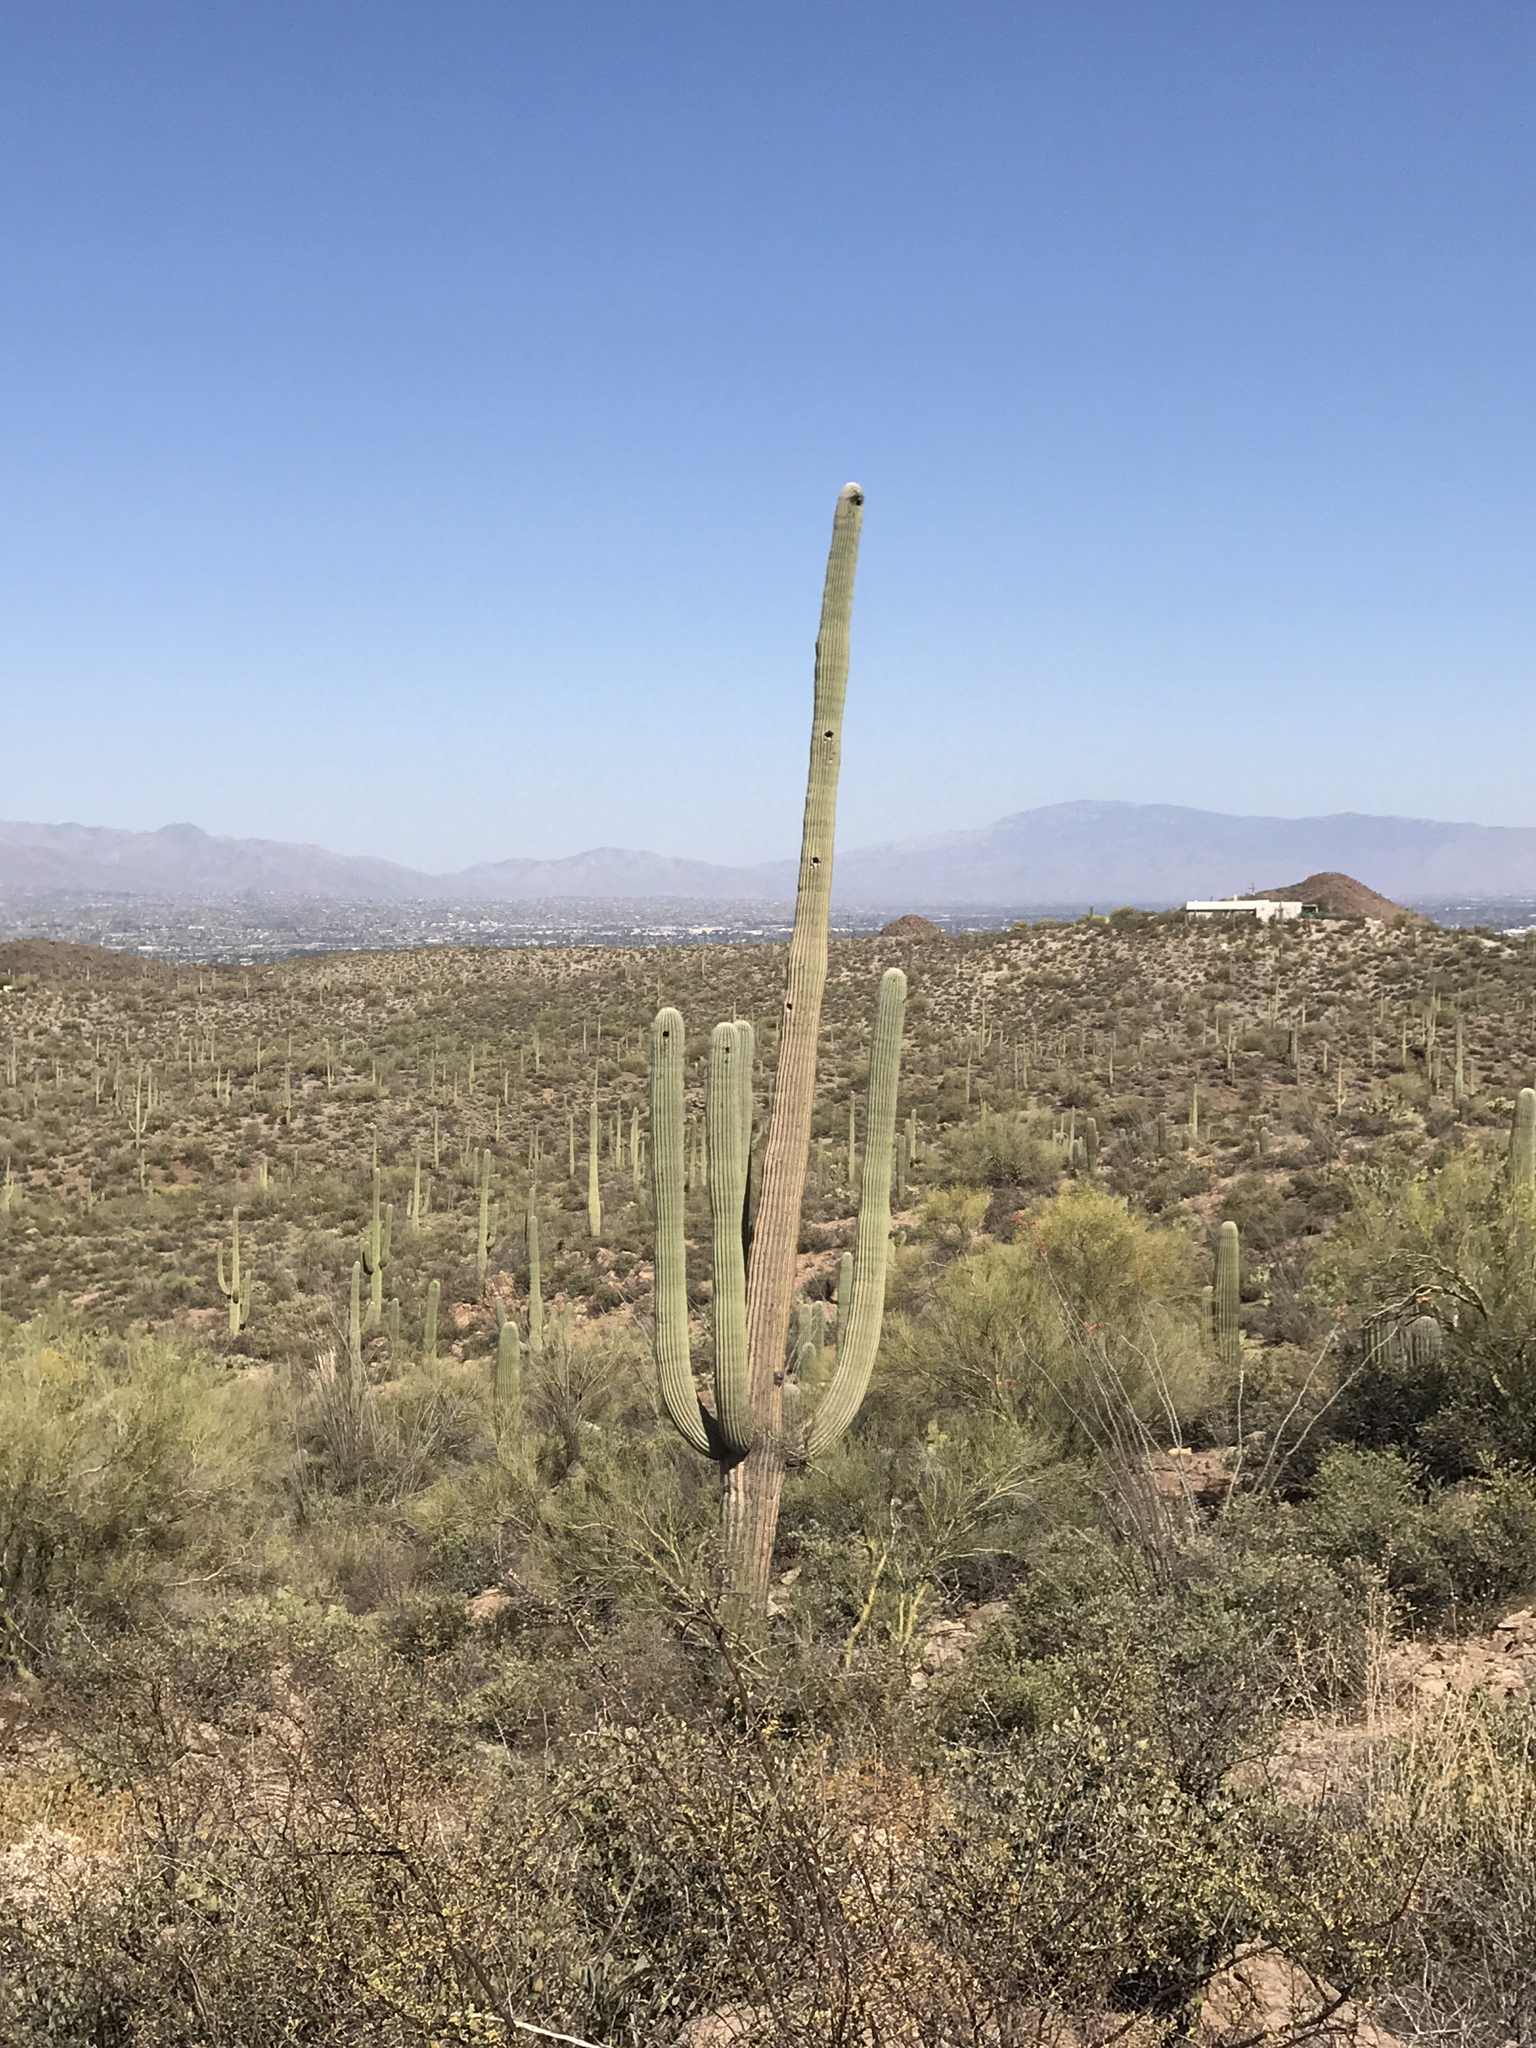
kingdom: Plantae
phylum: Tracheophyta
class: Magnoliopsida
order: Caryophyllales
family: Cactaceae
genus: Carnegiea
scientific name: Carnegiea gigantea
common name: Saguaro
